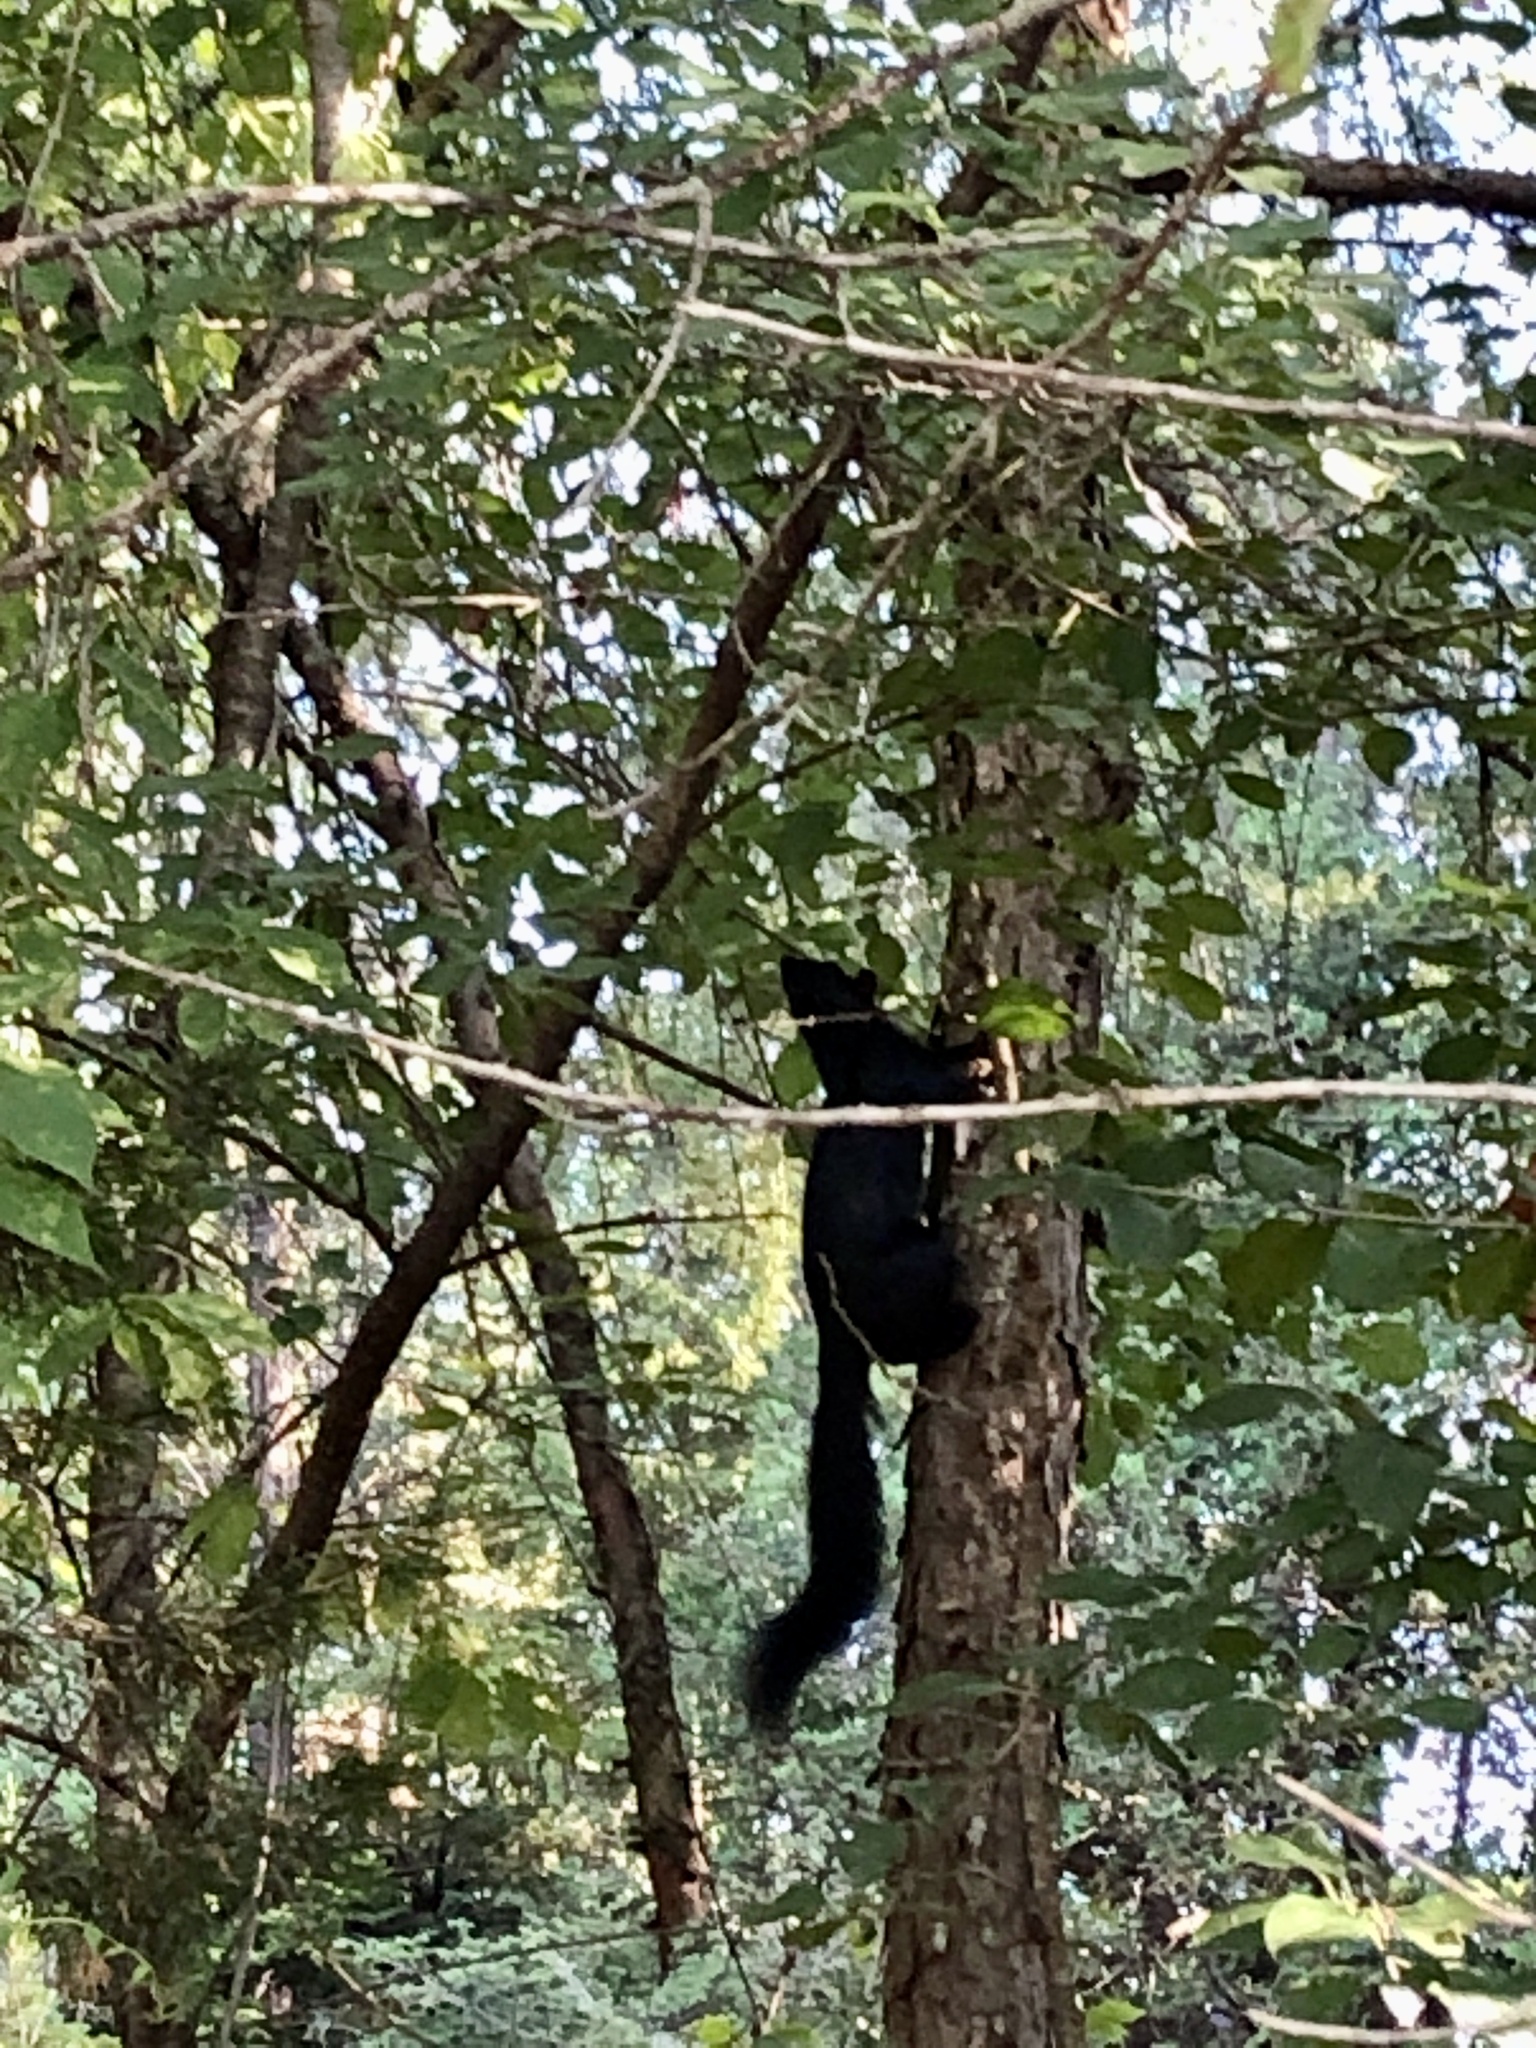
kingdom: Animalia
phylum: Chordata
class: Mammalia
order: Rodentia
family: Sciuridae
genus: Sciurus
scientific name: Sciurus carolinensis
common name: Eastern gray squirrel
